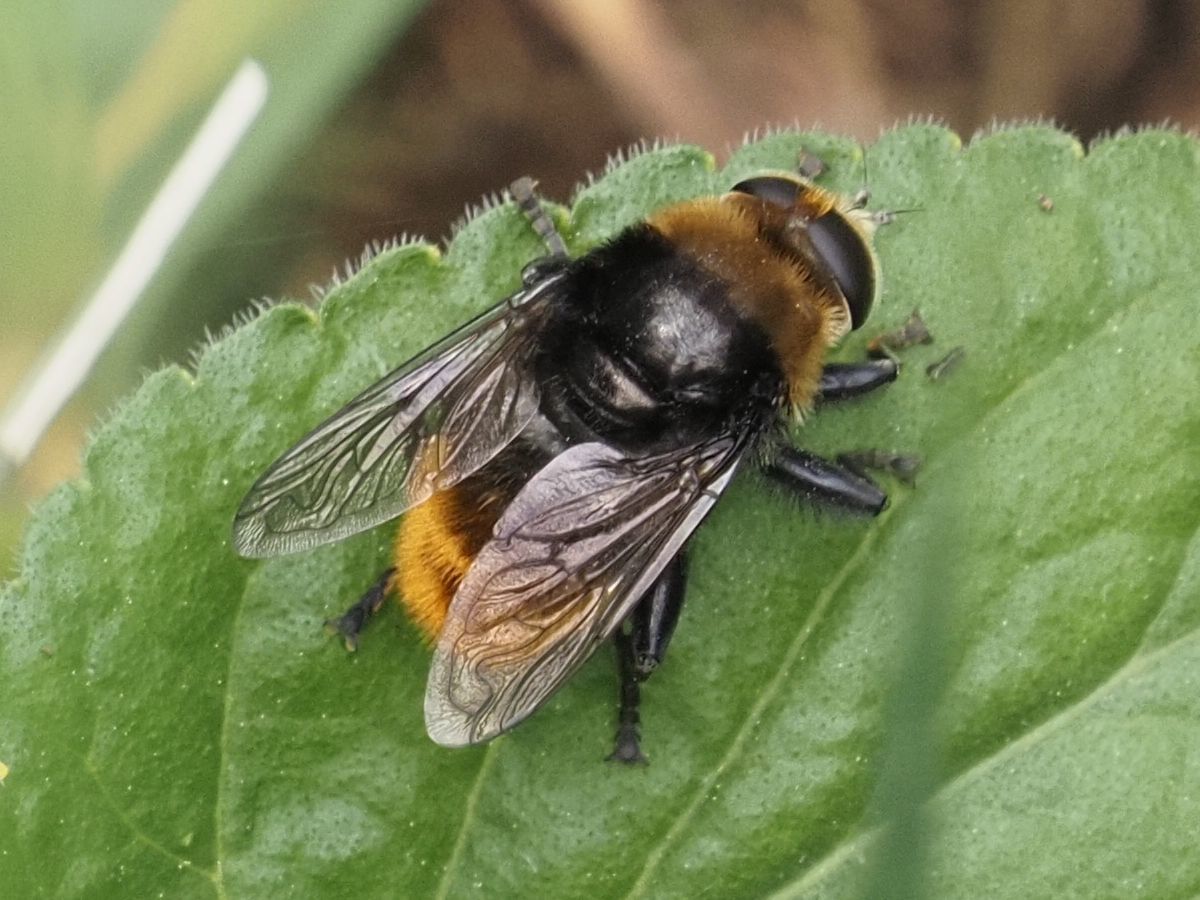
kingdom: Animalia
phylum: Arthropoda
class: Insecta
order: Diptera
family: Syrphidae
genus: Merodon
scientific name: Merodon equestris
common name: Greater bulb-fly
